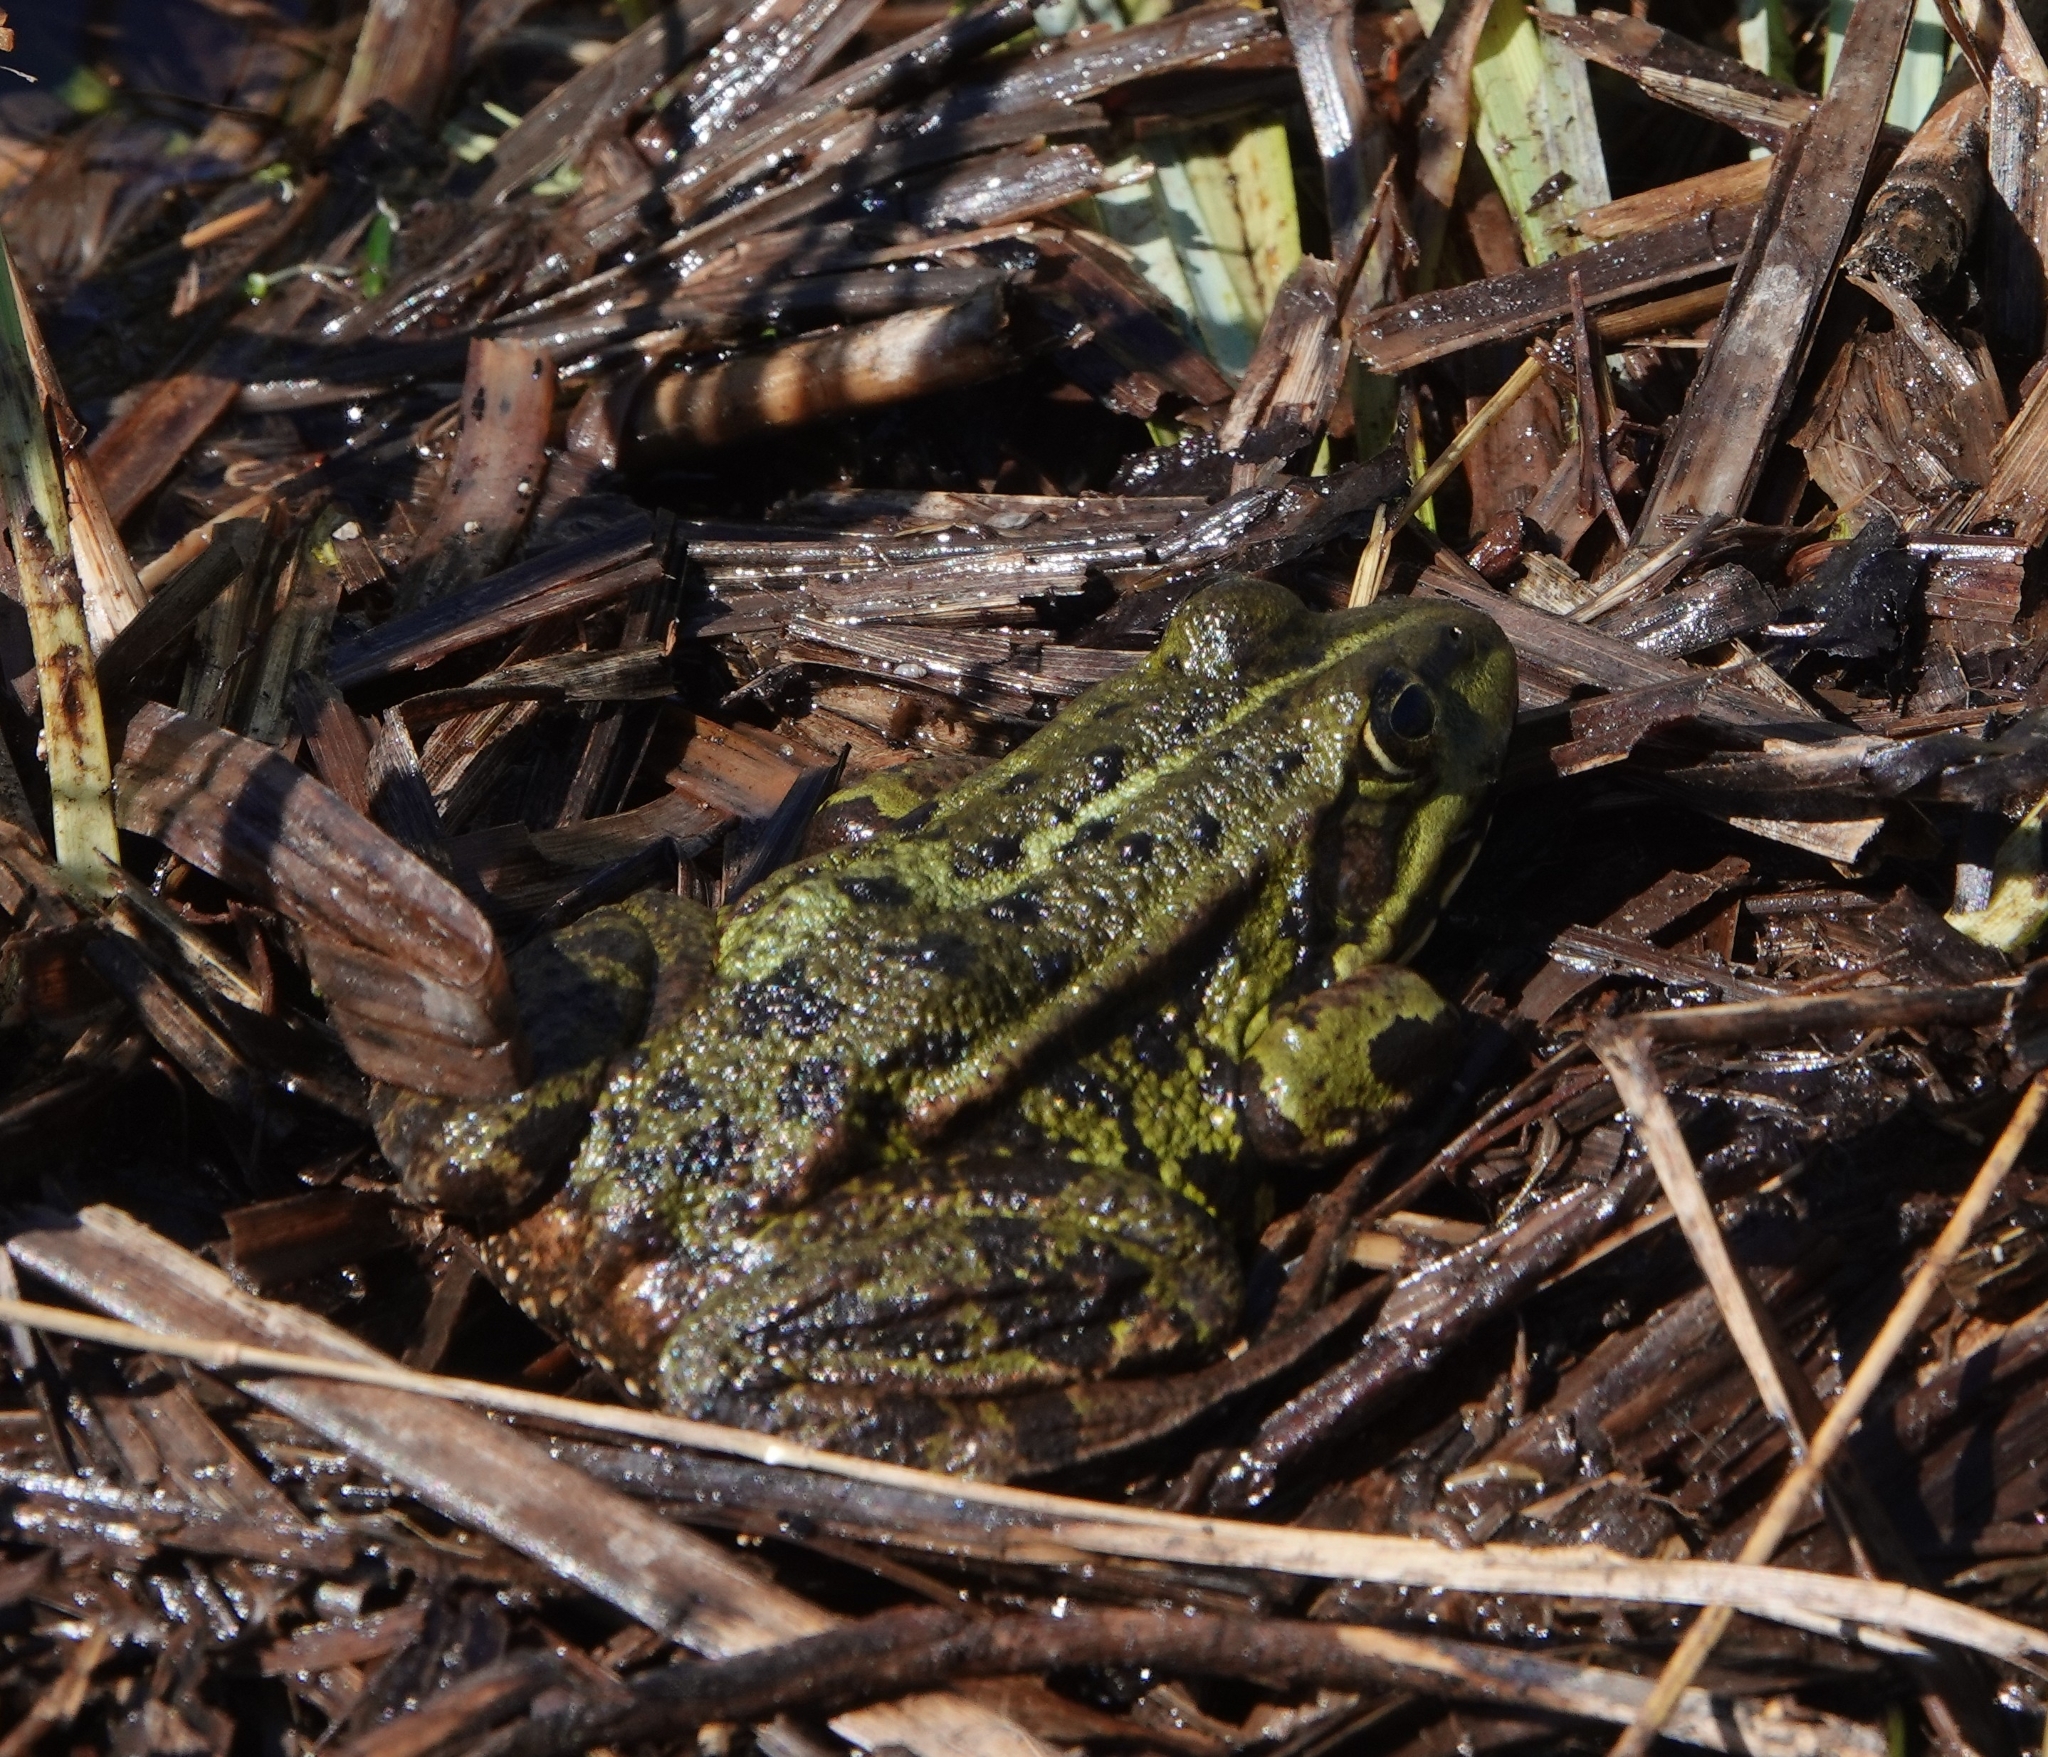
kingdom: Animalia
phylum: Chordata
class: Amphibia
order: Anura
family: Ranidae
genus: Pelophylax
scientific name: Pelophylax lessonae
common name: Pool frog
